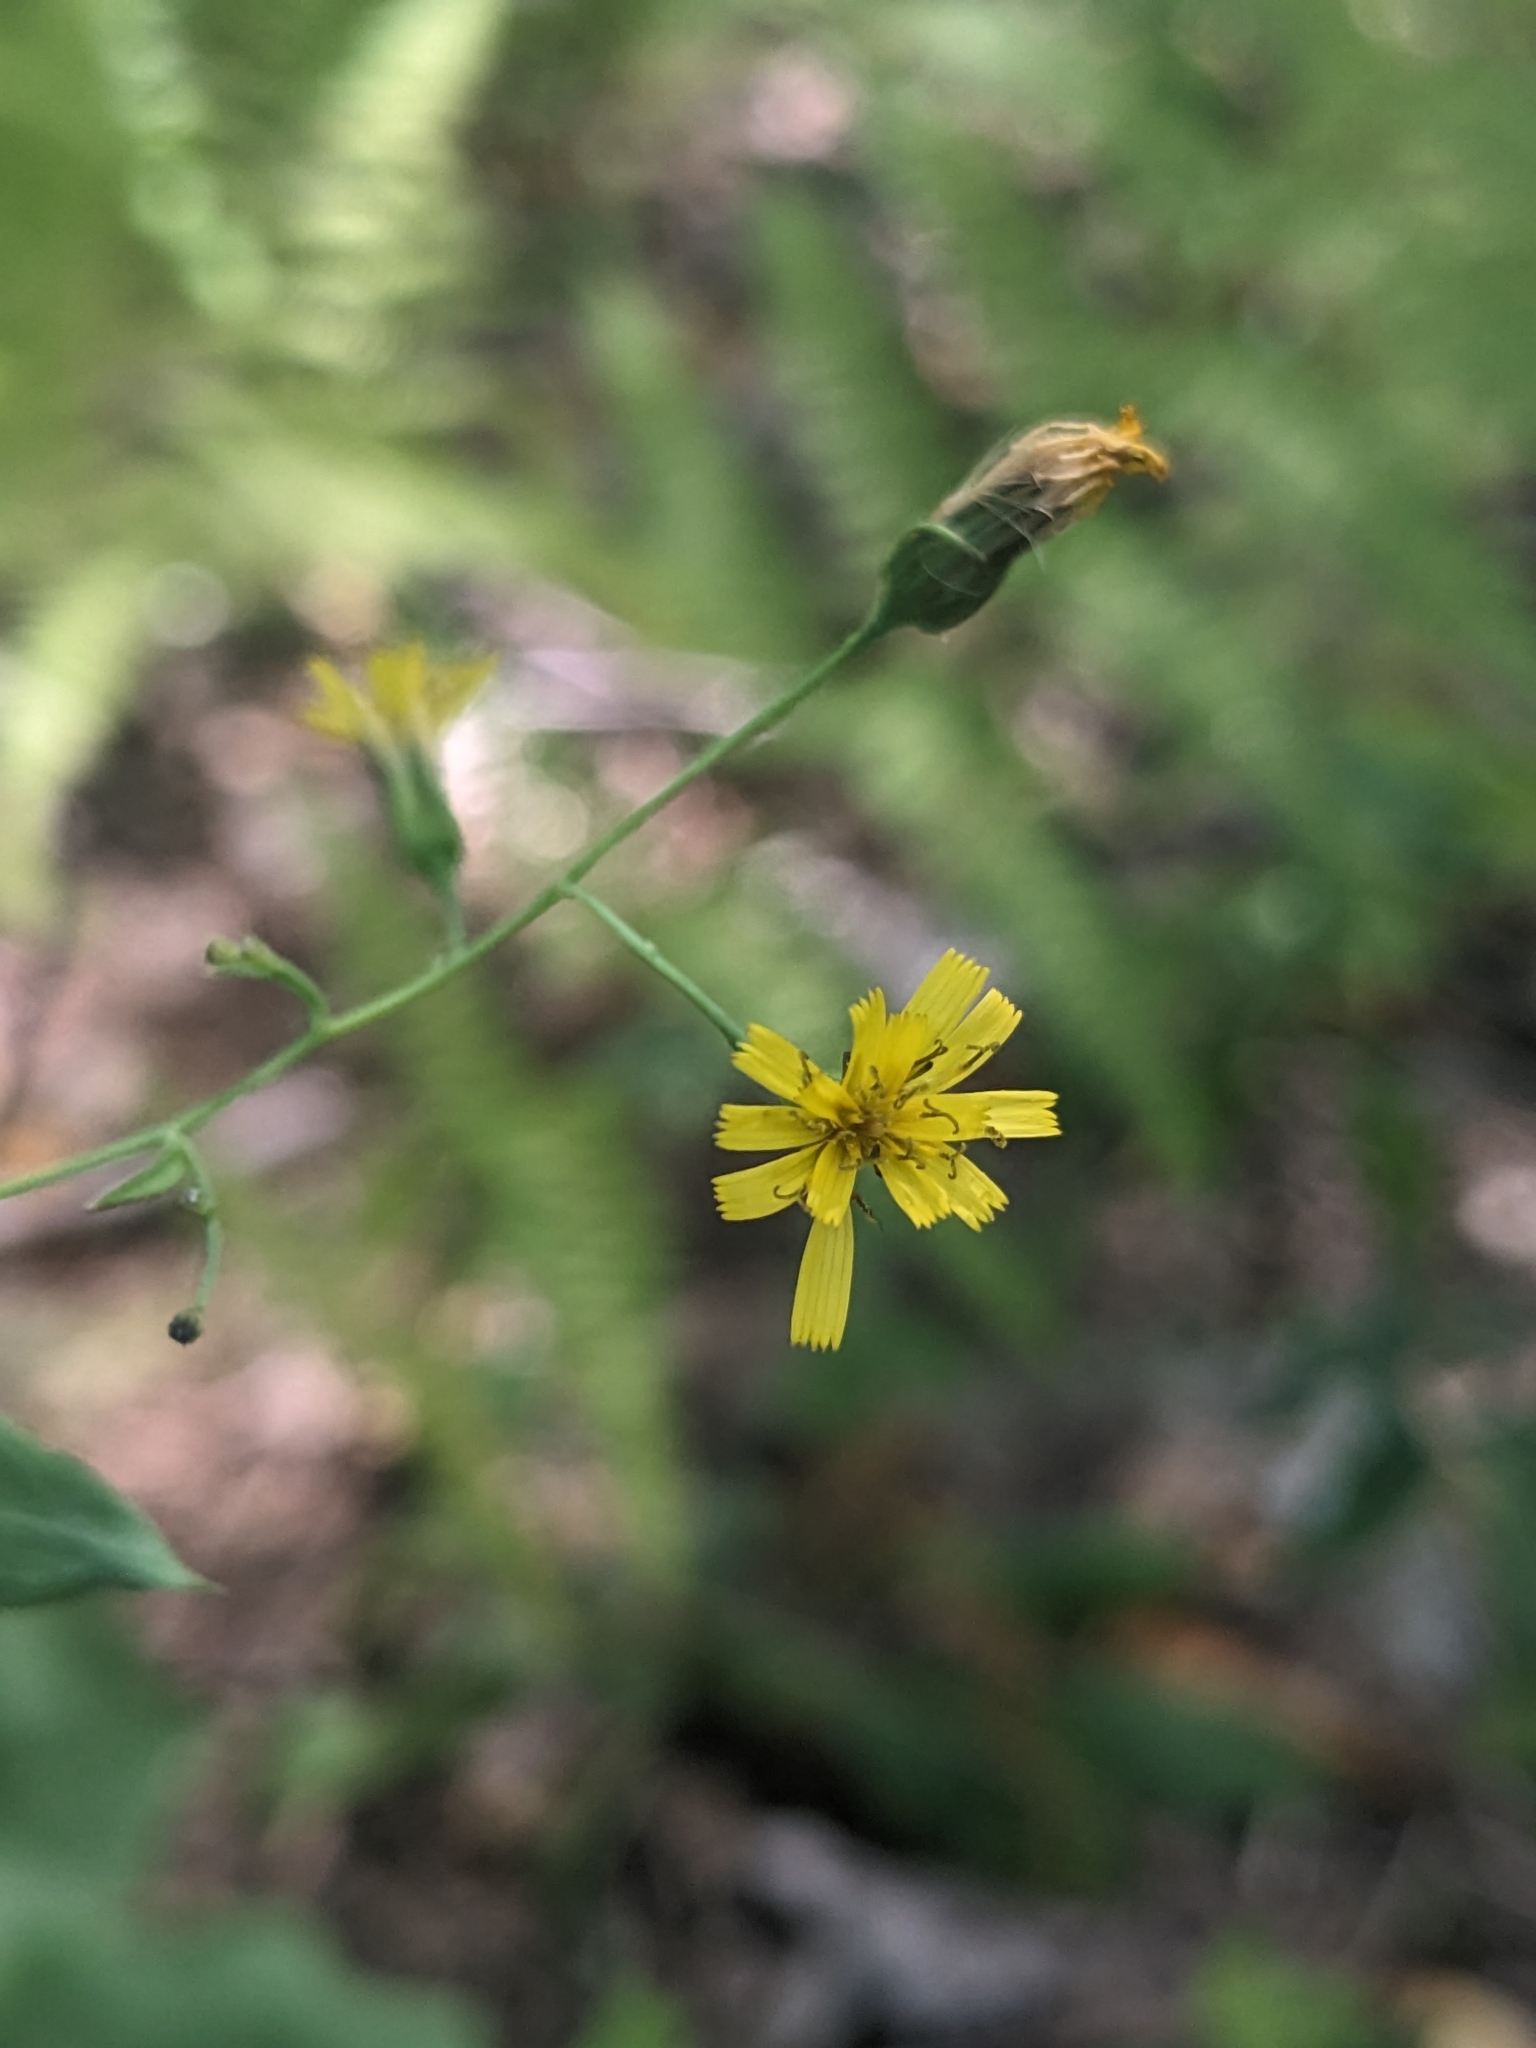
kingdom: Plantae
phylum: Tracheophyta
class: Magnoliopsida
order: Asterales
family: Asteraceae
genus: Hieracium
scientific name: Hieracium paniculatum
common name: Allegheny hawkweed
